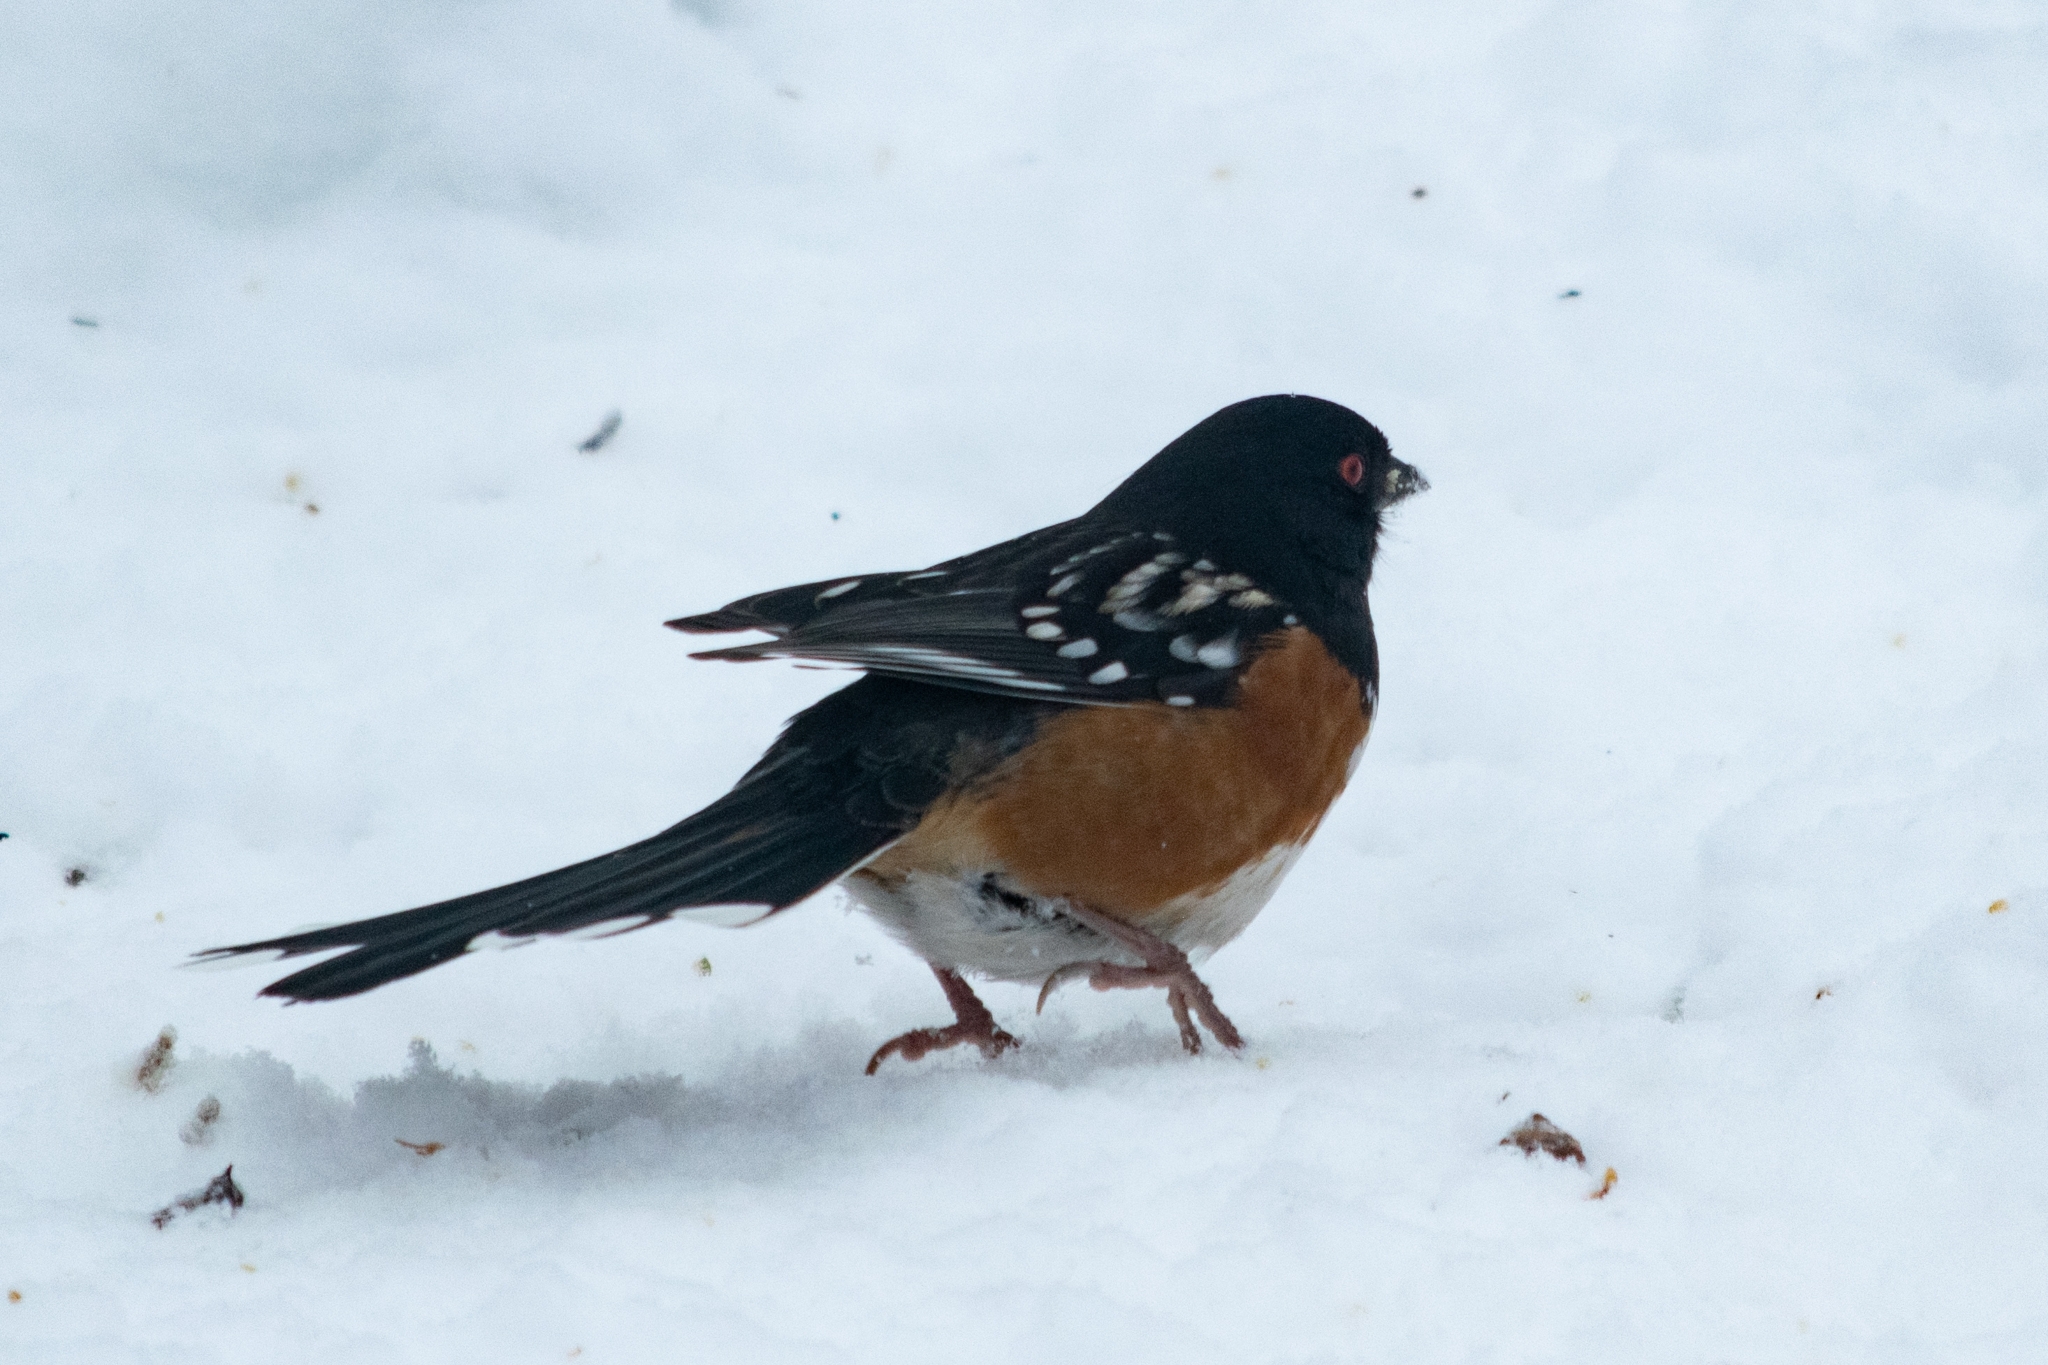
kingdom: Animalia
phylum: Chordata
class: Aves
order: Passeriformes
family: Passerellidae
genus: Pipilo
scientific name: Pipilo maculatus
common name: Spotted towhee
